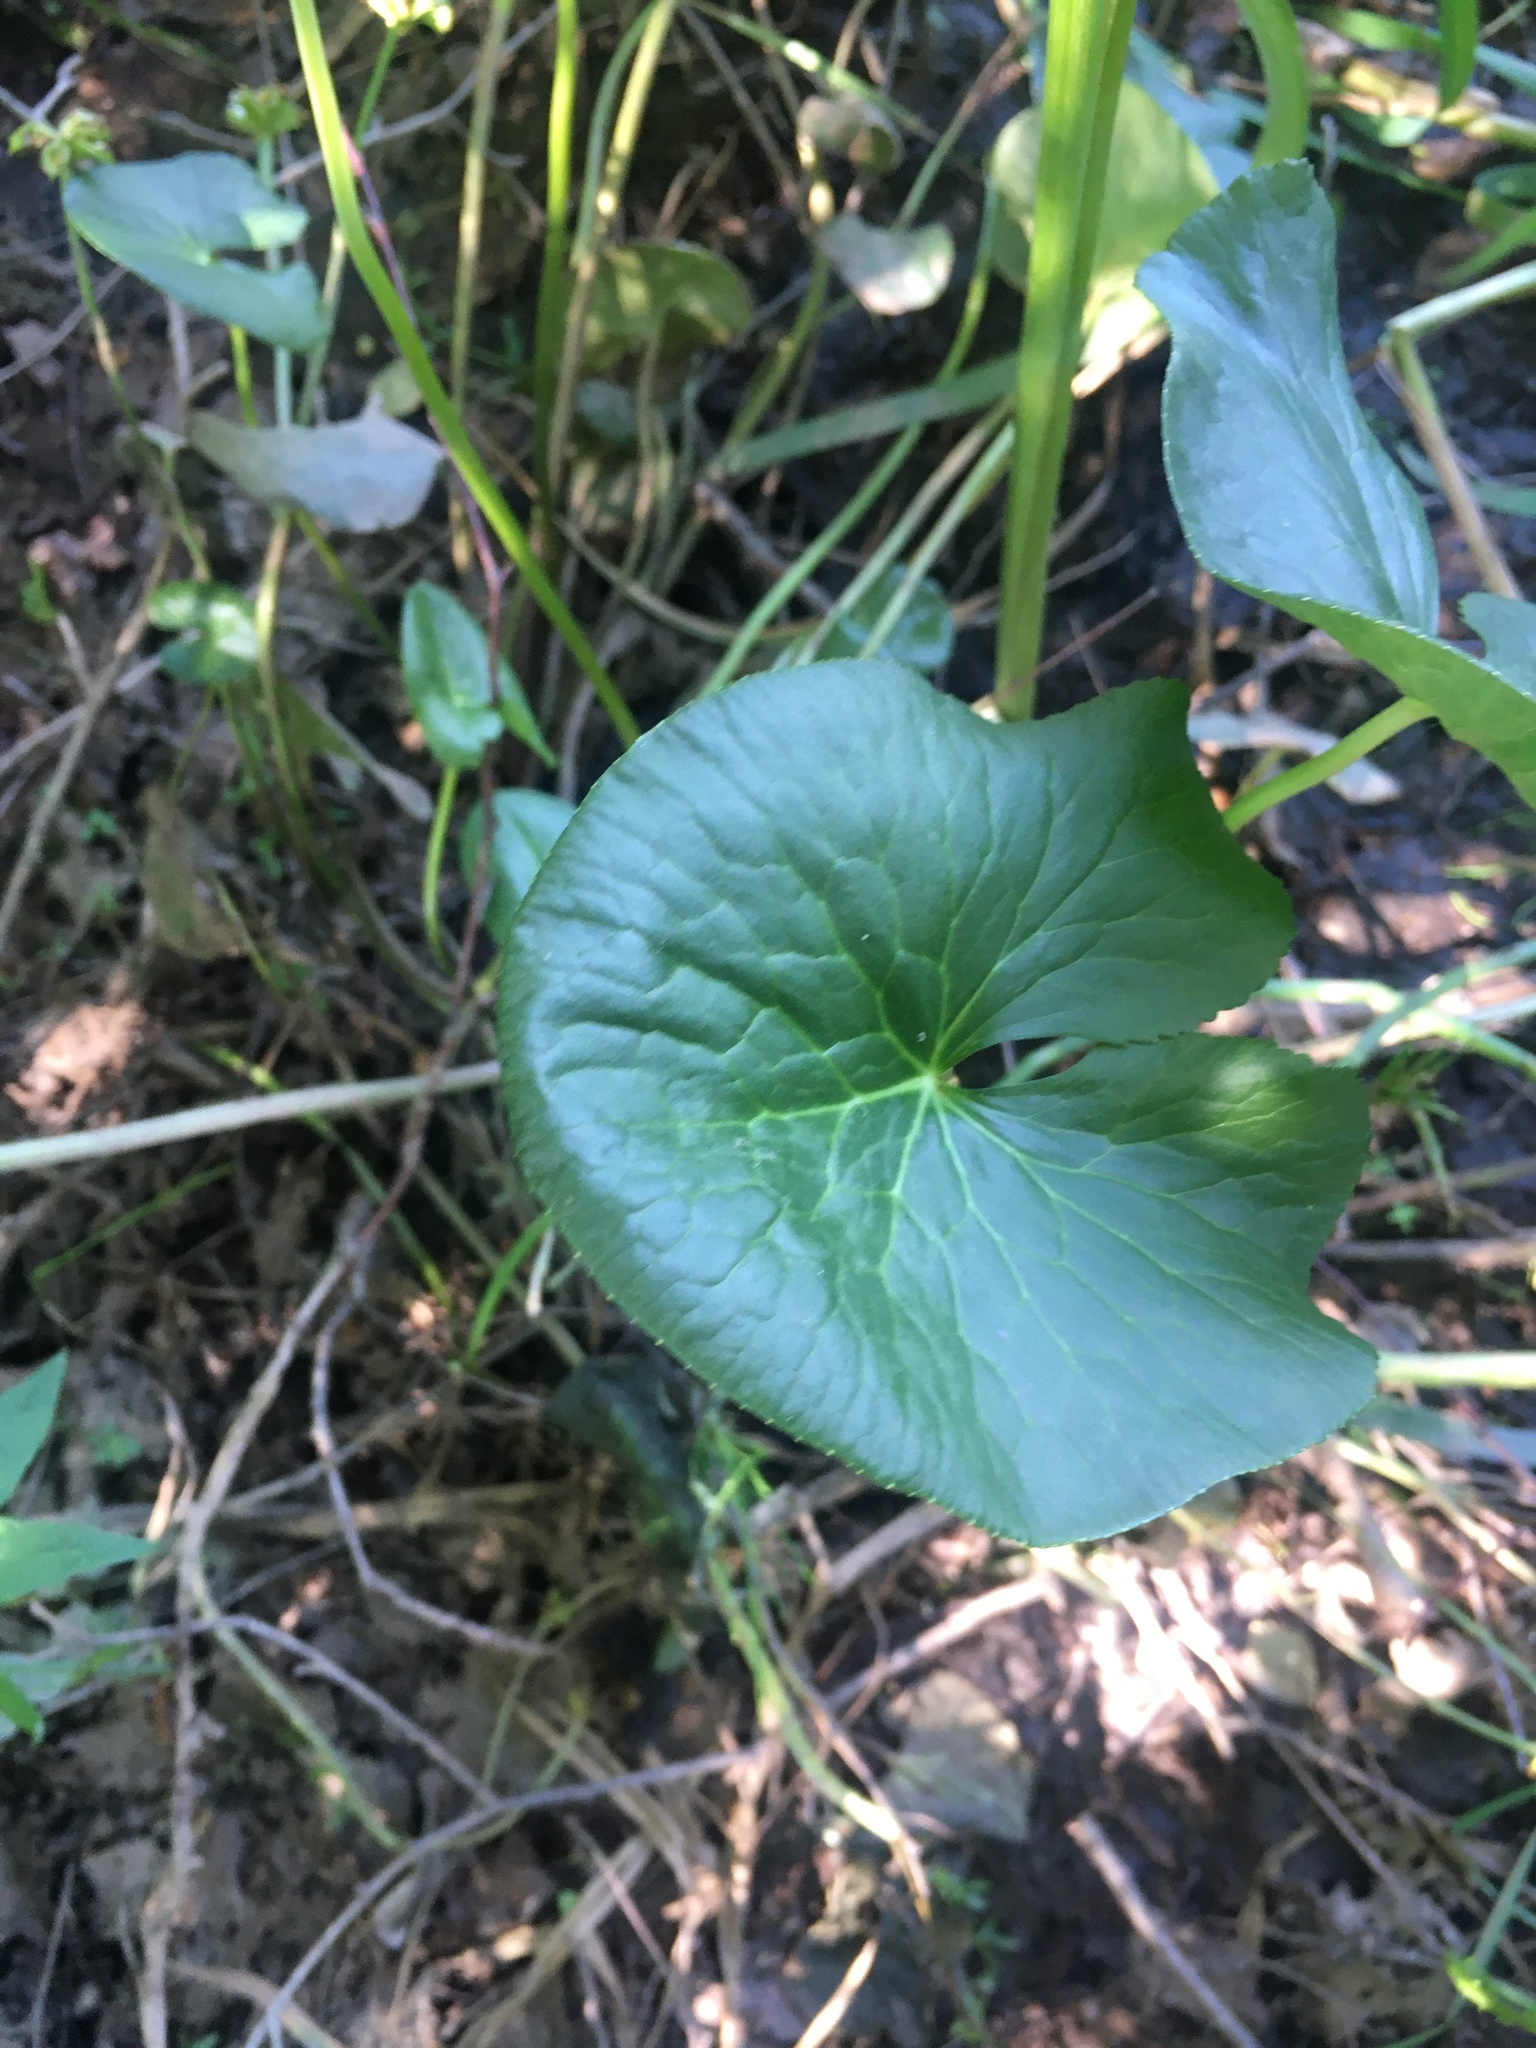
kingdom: Plantae
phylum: Tracheophyta
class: Magnoliopsida
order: Ranunculales
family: Ranunculaceae
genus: Caltha
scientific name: Caltha palustris
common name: Marsh marigold
